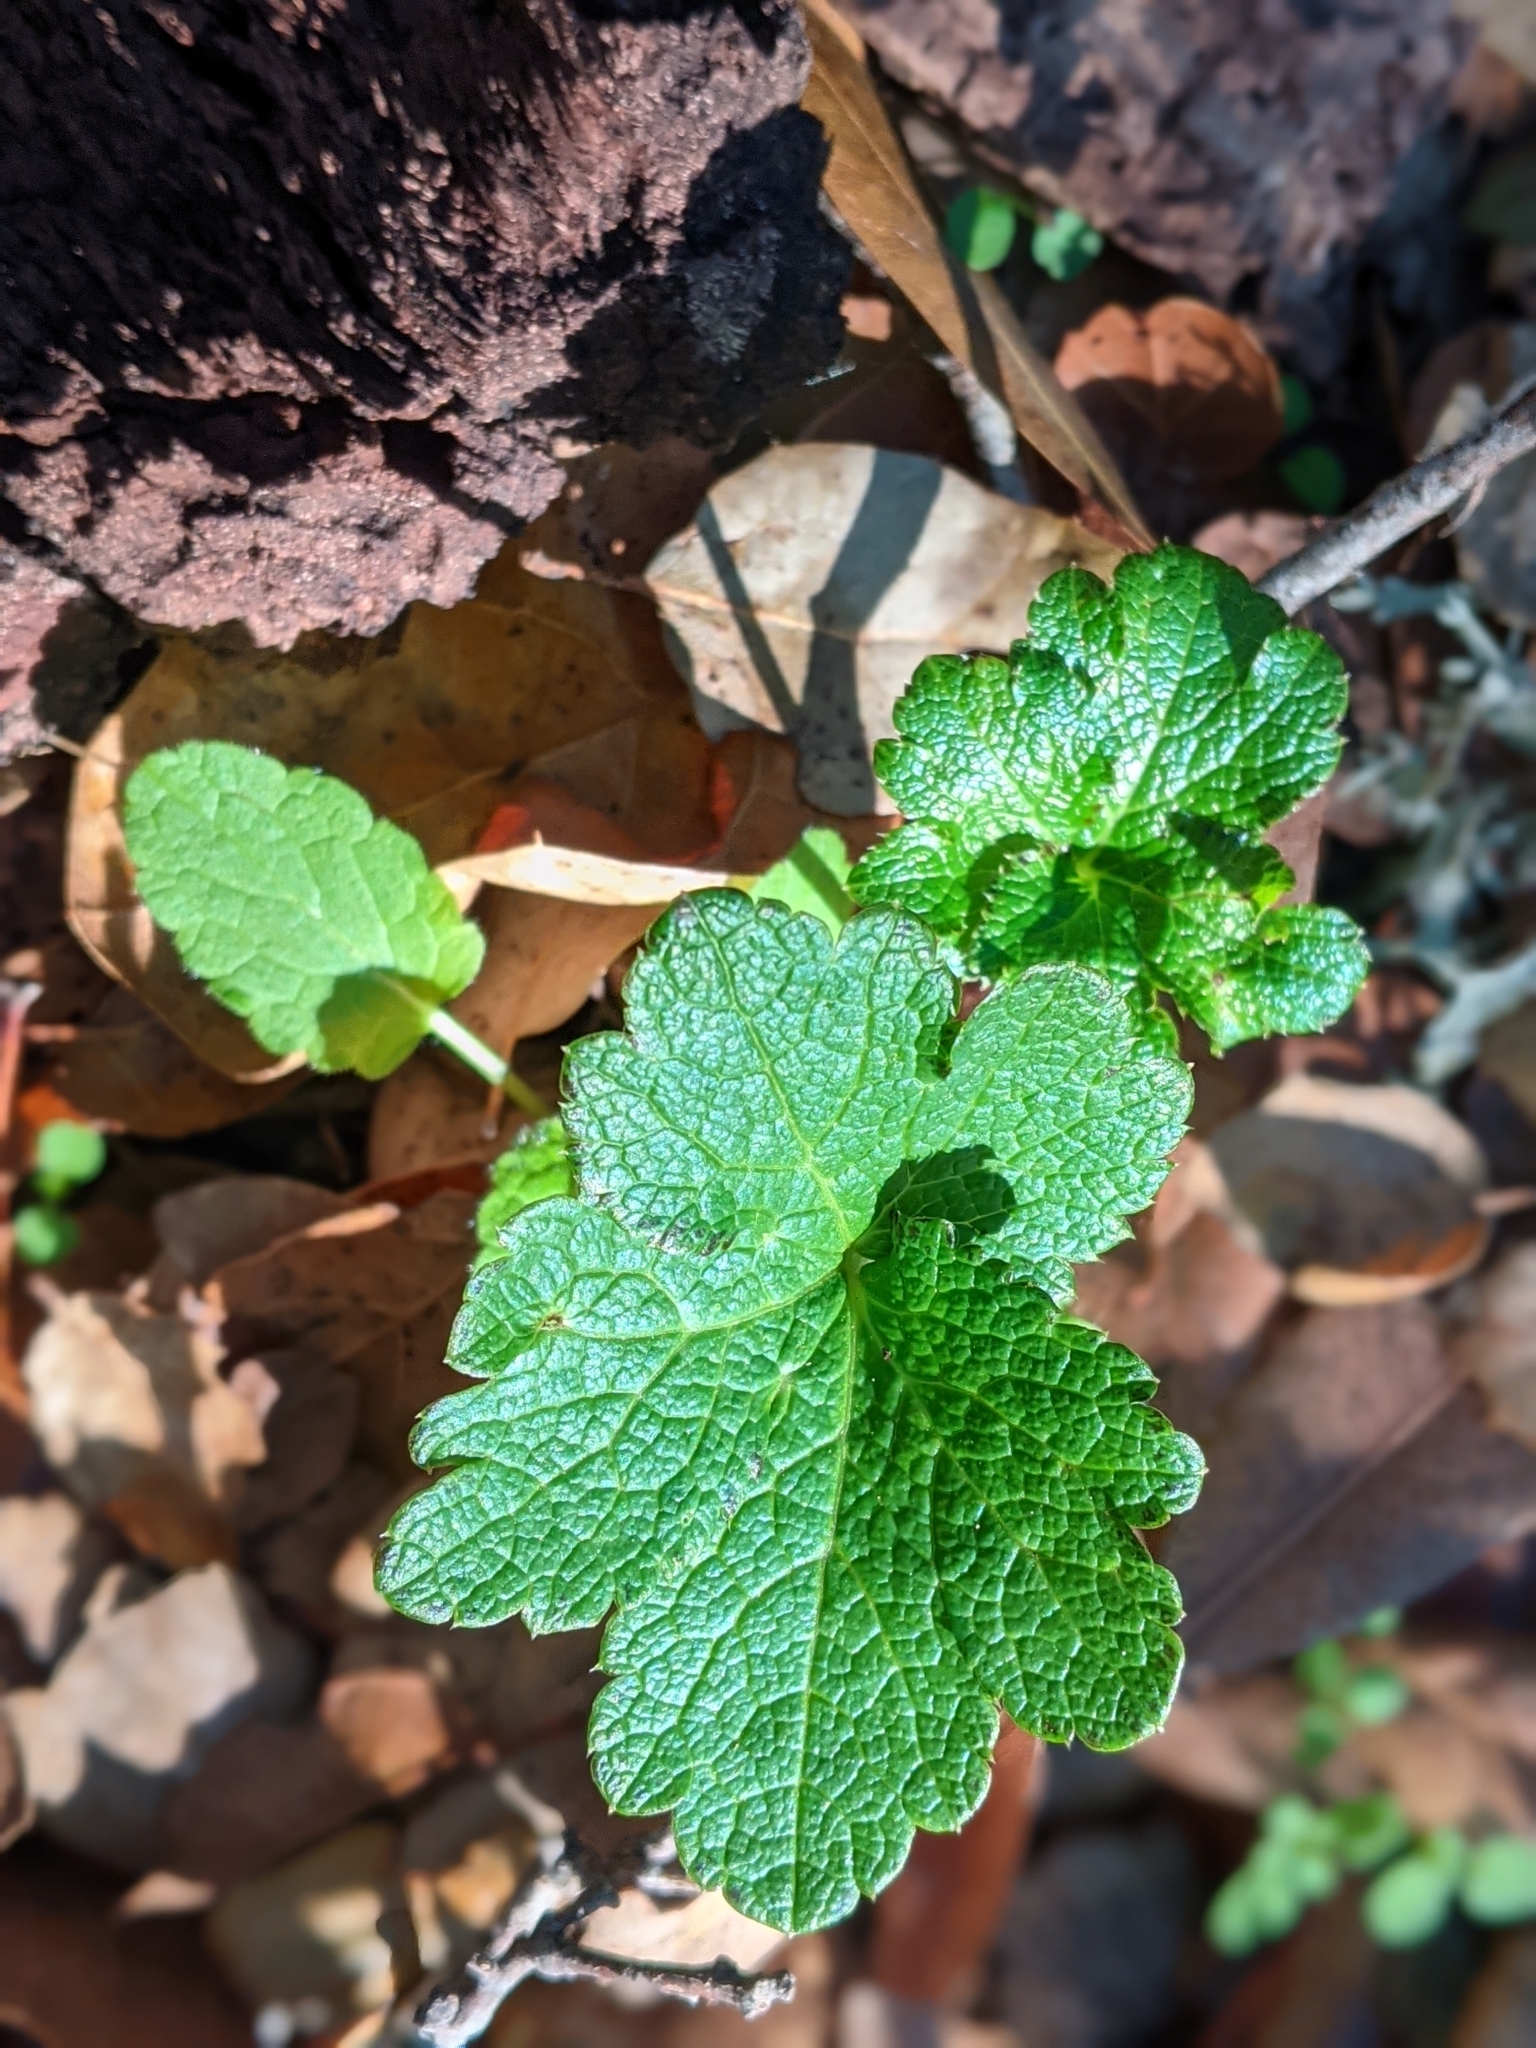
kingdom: Plantae
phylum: Tracheophyta
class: Magnoliopsida
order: Apiales
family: Apiaceae
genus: Sanicula
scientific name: Sanicula crassicaulis
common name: Western snakeroot
